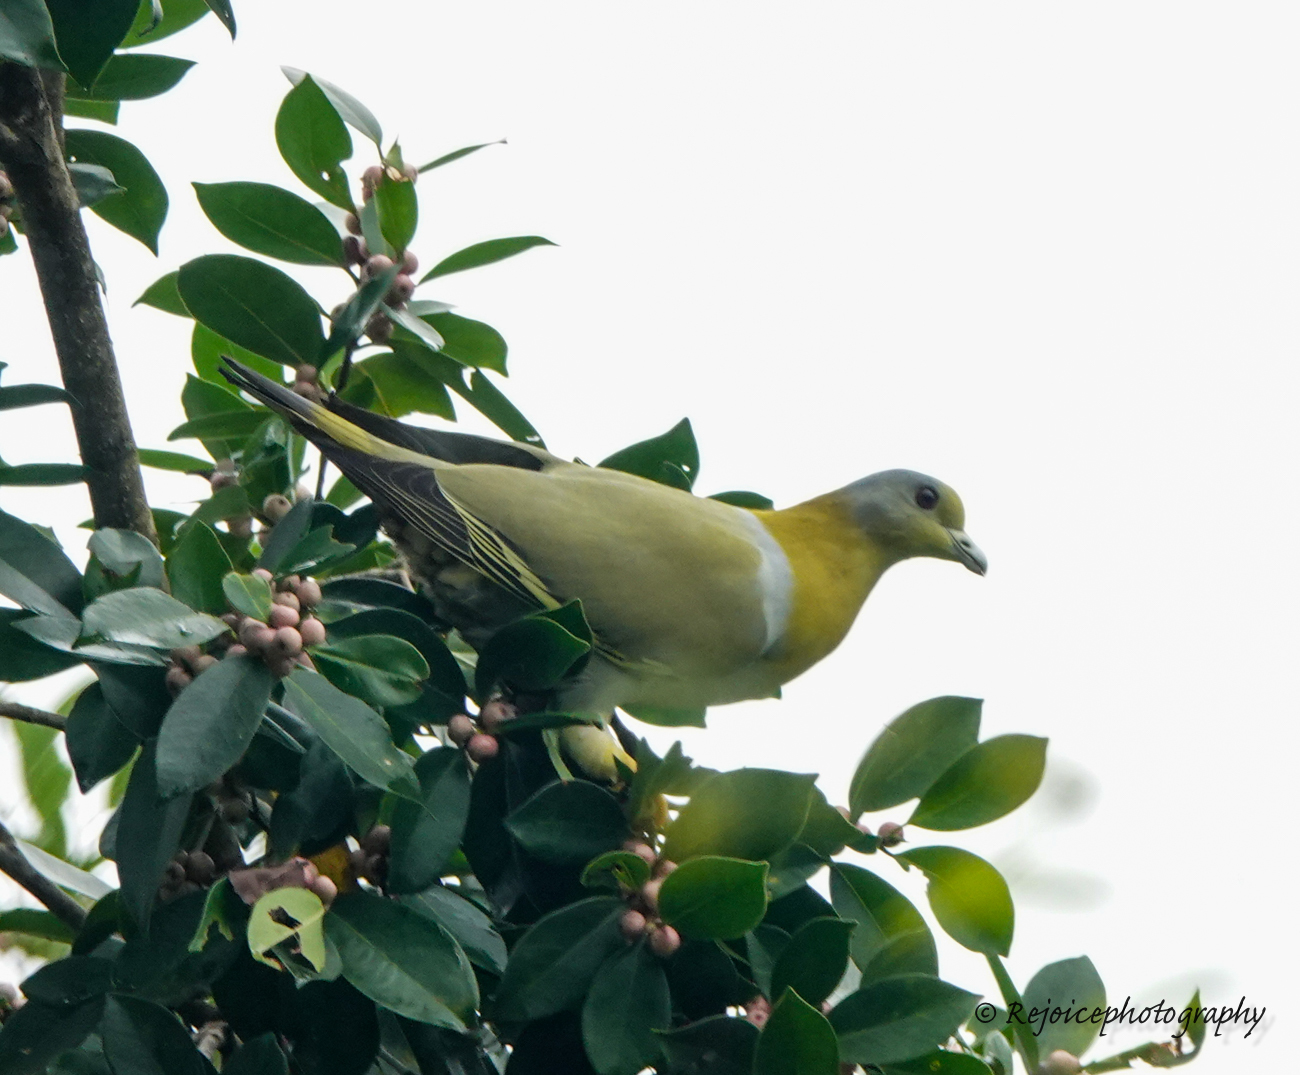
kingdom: Animalia
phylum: Chordata
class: Aves
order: Columbiformes
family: Columbidae
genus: Treron
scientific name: Treron phoenicopterus
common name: Yellow-footed green pigeon
